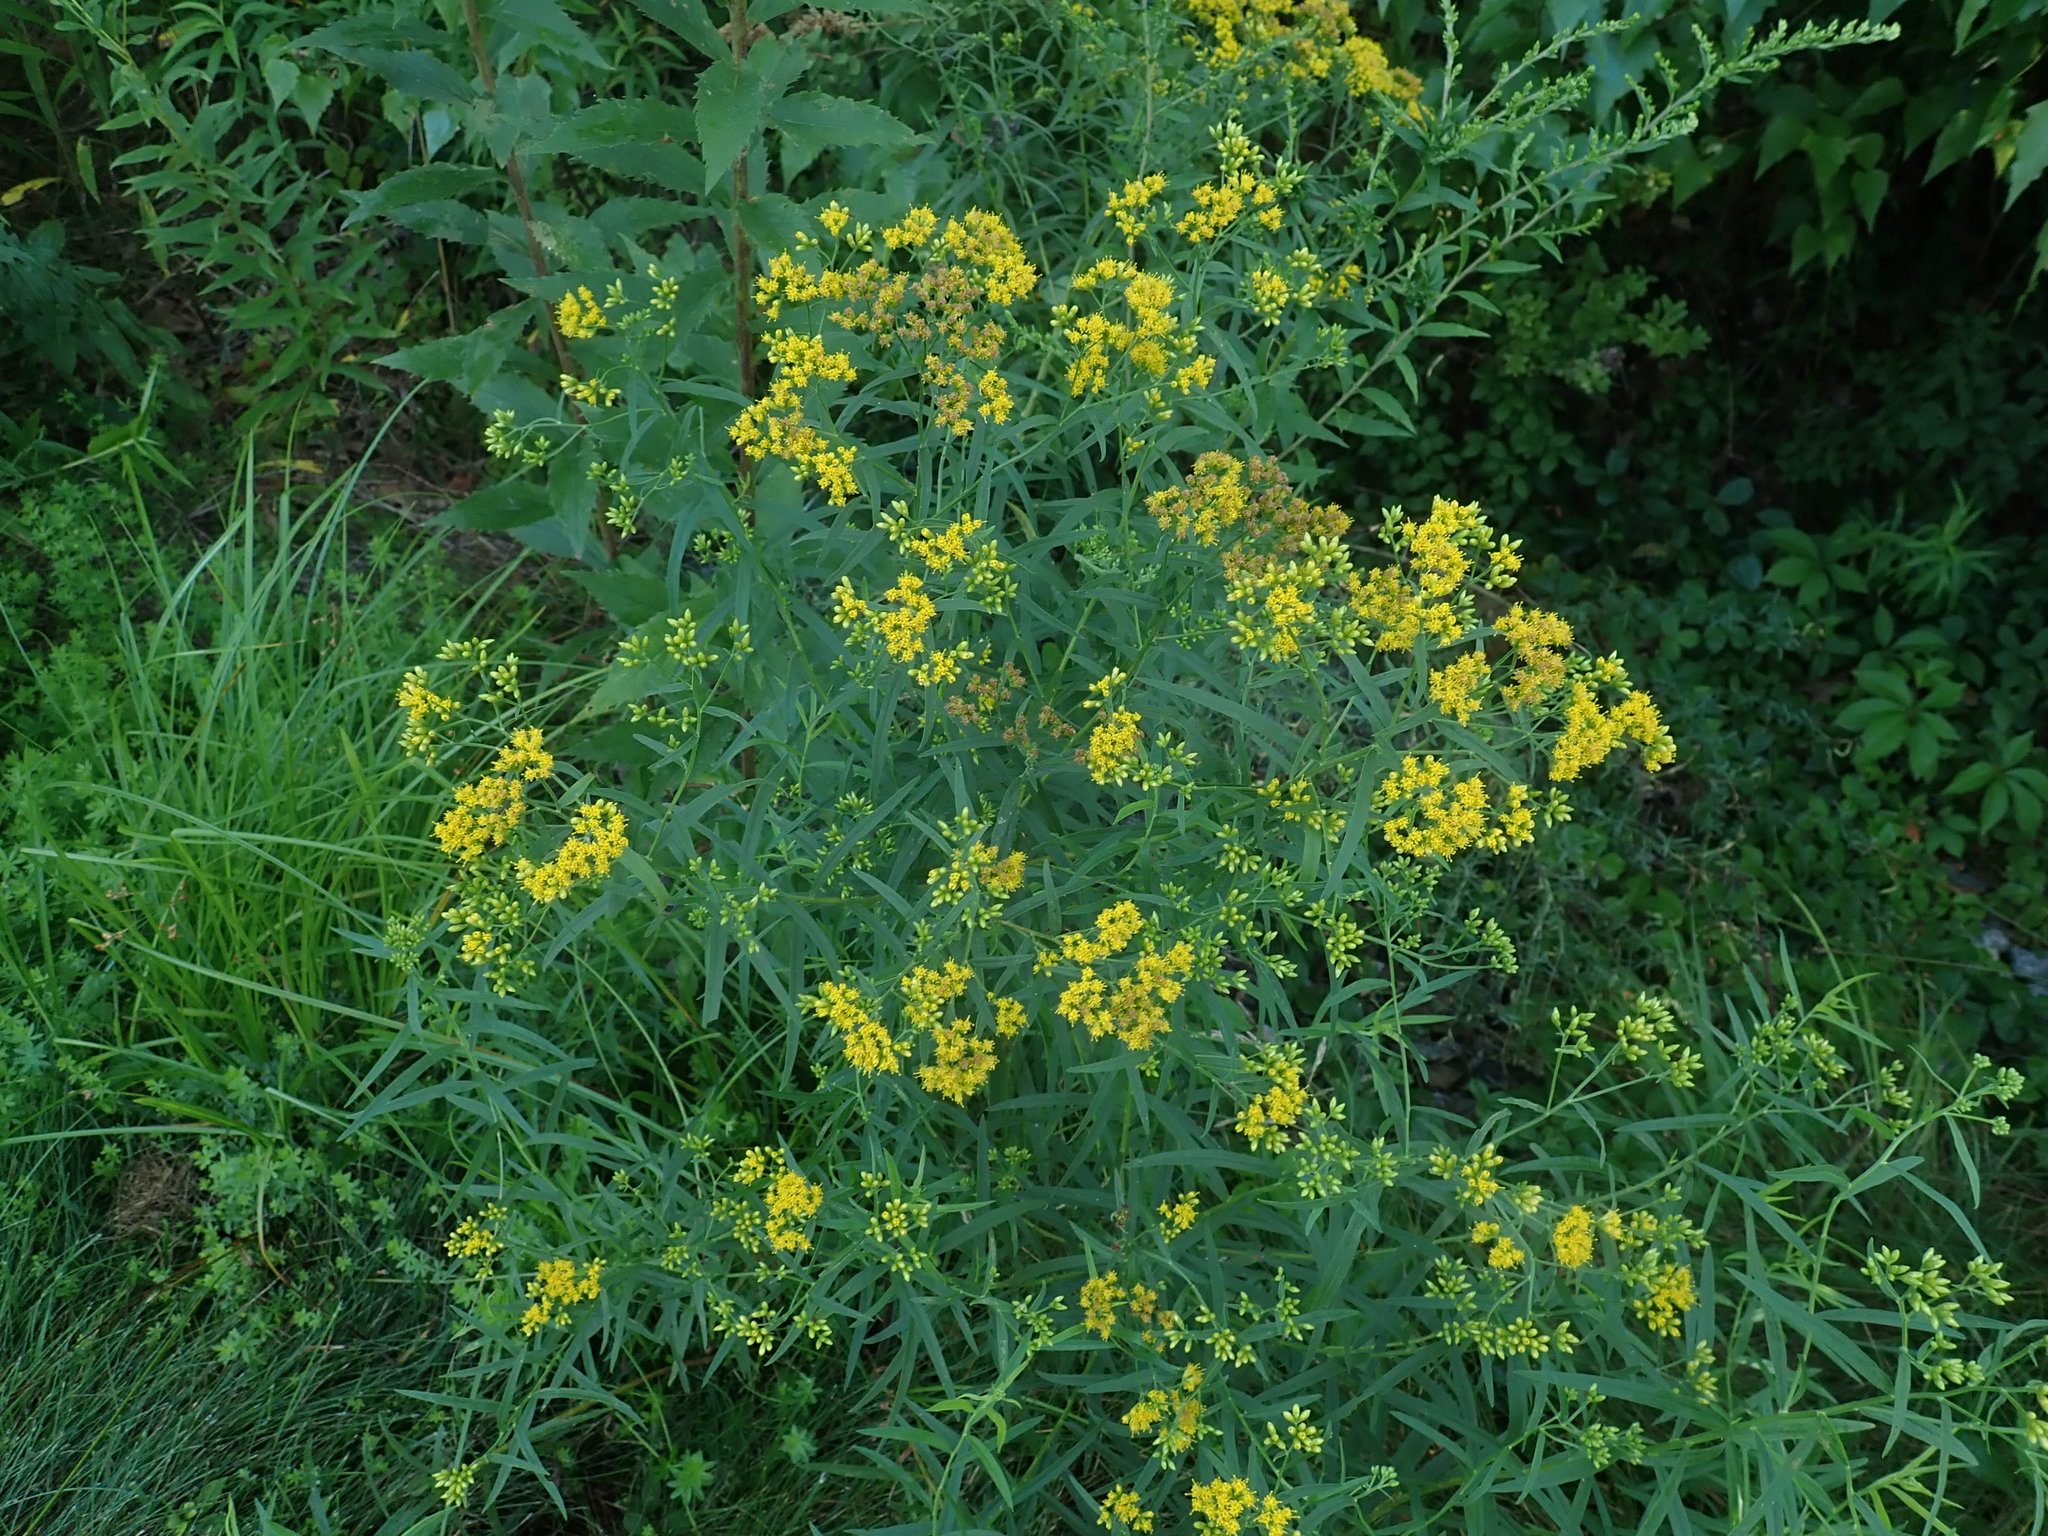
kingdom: Plantae
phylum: Tracheophyta
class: Magnoliopsida
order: Asterales
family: Asteraceae
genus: Euthamia
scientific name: Euthamia graminifolia
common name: Common goldentop
